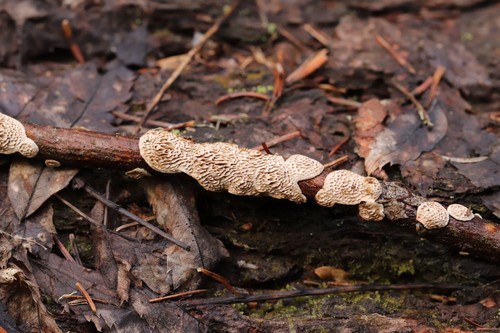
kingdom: Fungi
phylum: Basidiomycota
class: Agaricomycetes
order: Polyporales
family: Polyporaceae
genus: Podofomes
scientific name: Podofomes mollis
